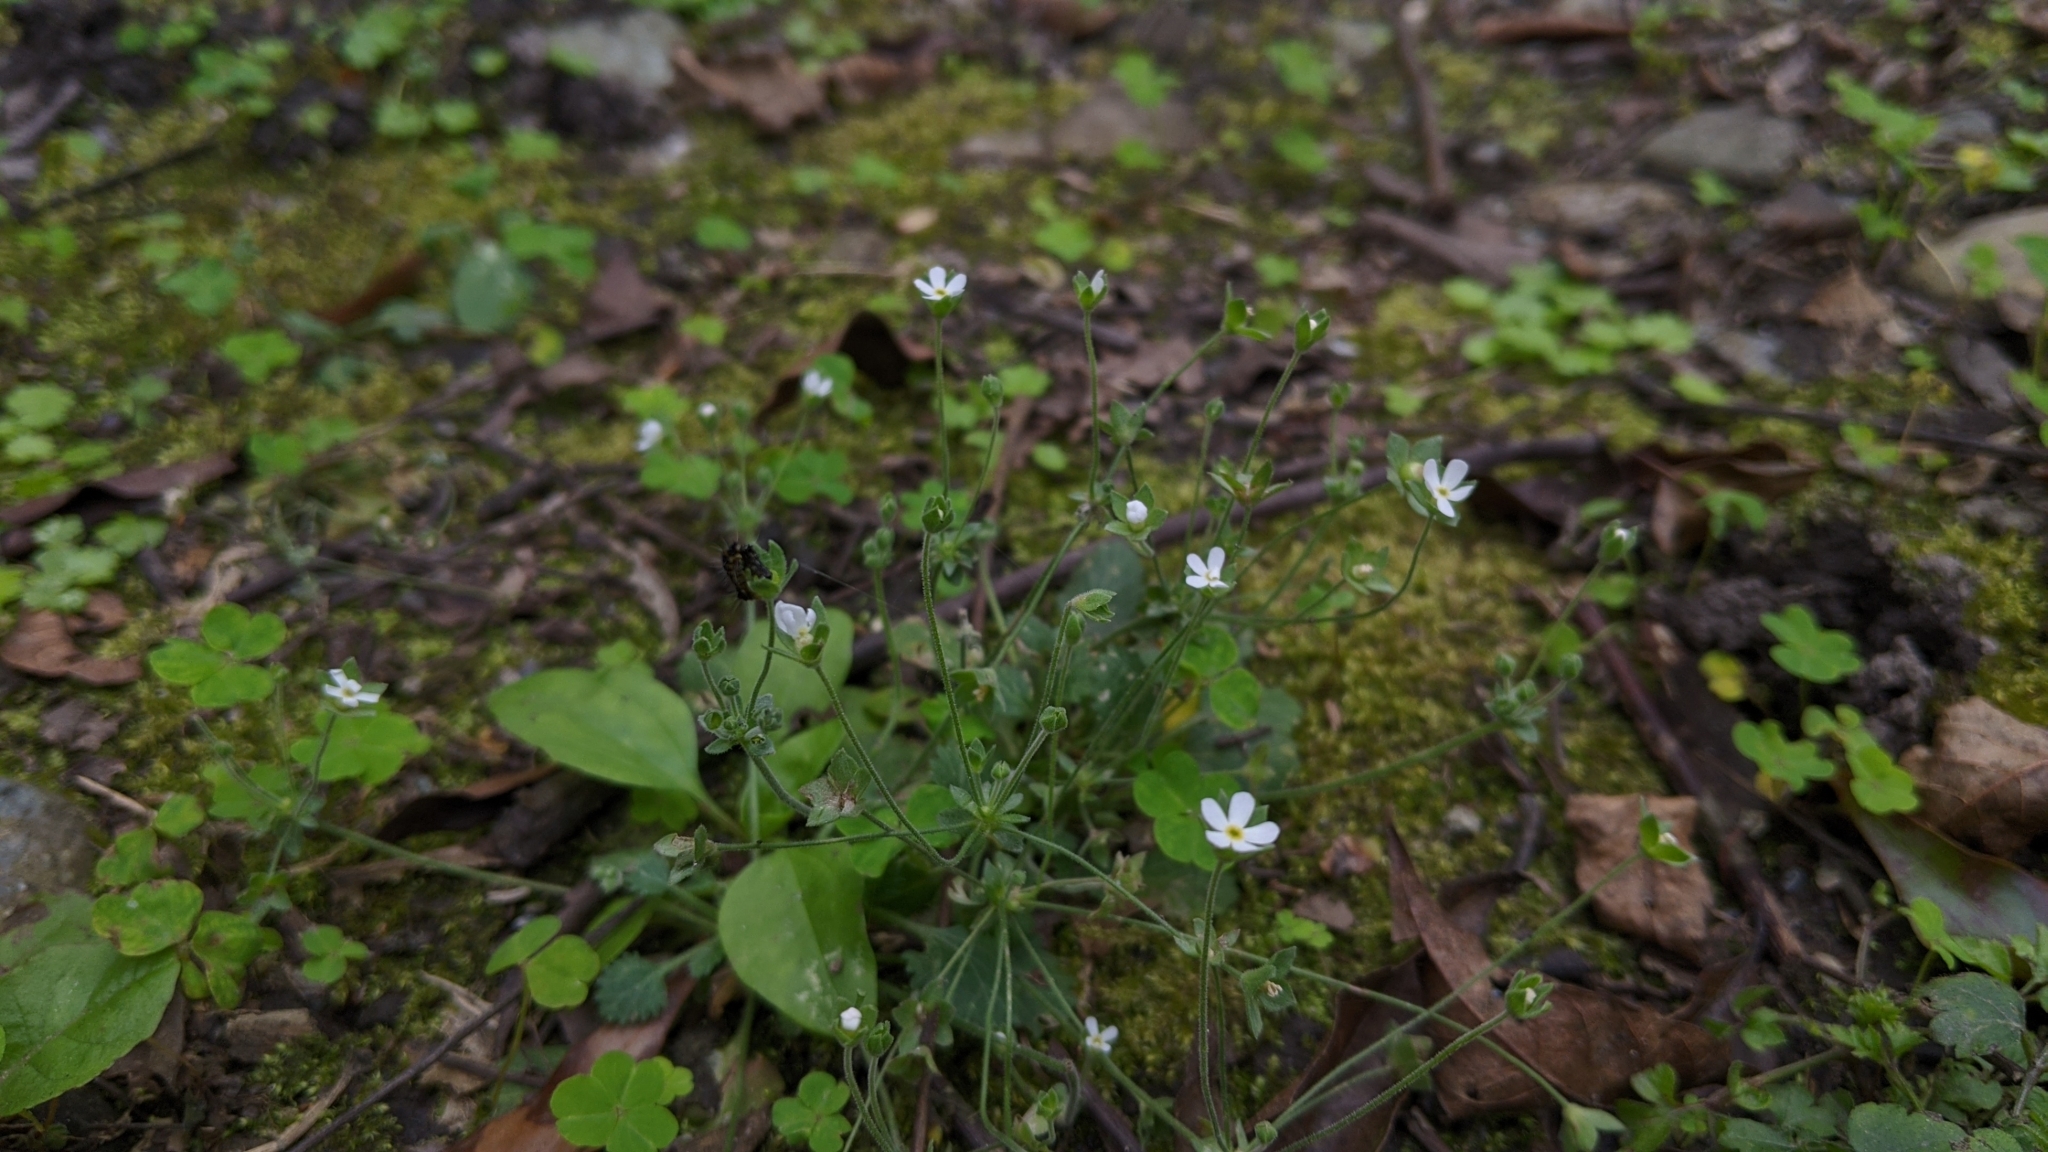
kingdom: Plantae
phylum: Tracheophyta
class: Magnoliopsida
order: Ericales
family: Primulaceae
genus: Androsace
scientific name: Androsace umbellata
